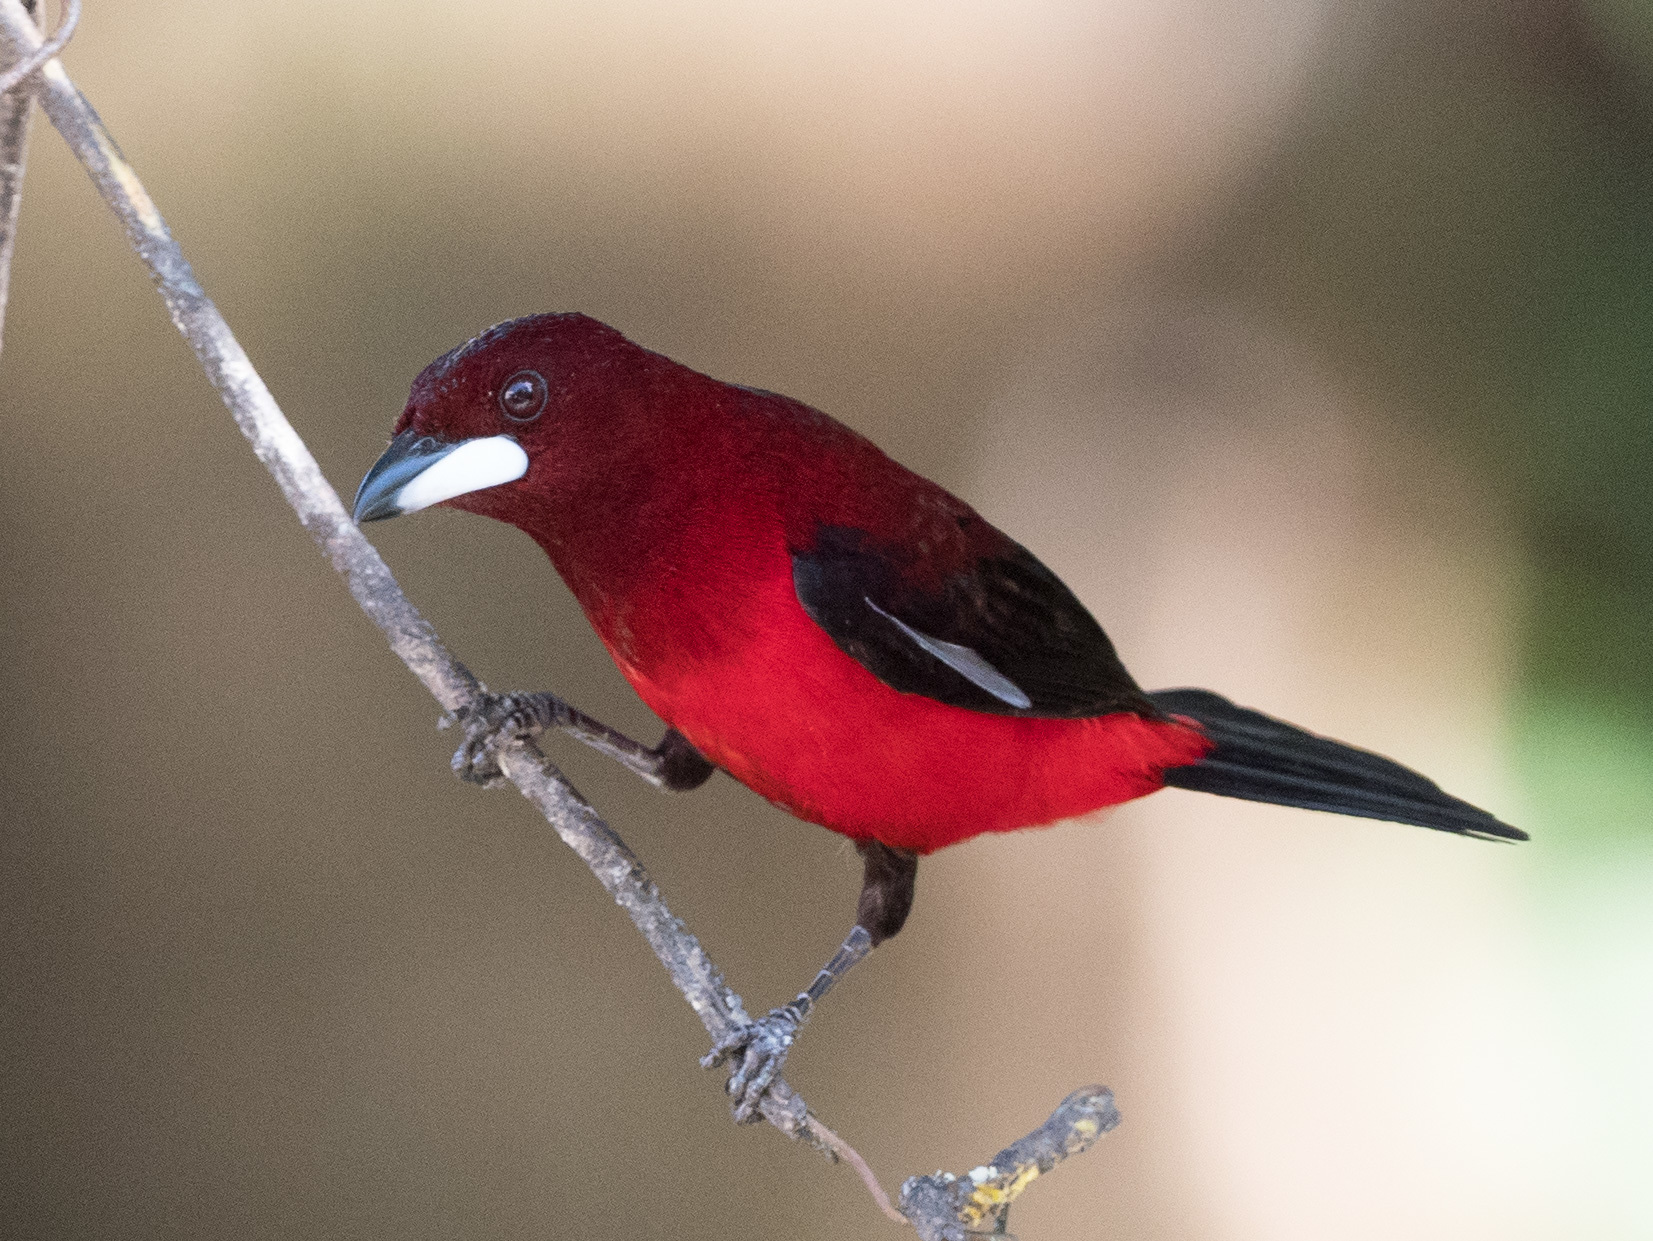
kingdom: Animalia
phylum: Chordata
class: Aves
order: Passeriformes
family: Thraupidae
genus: Ramphocelus
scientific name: Ramphocelus dimidiatus
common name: Crimson-backed tanager
